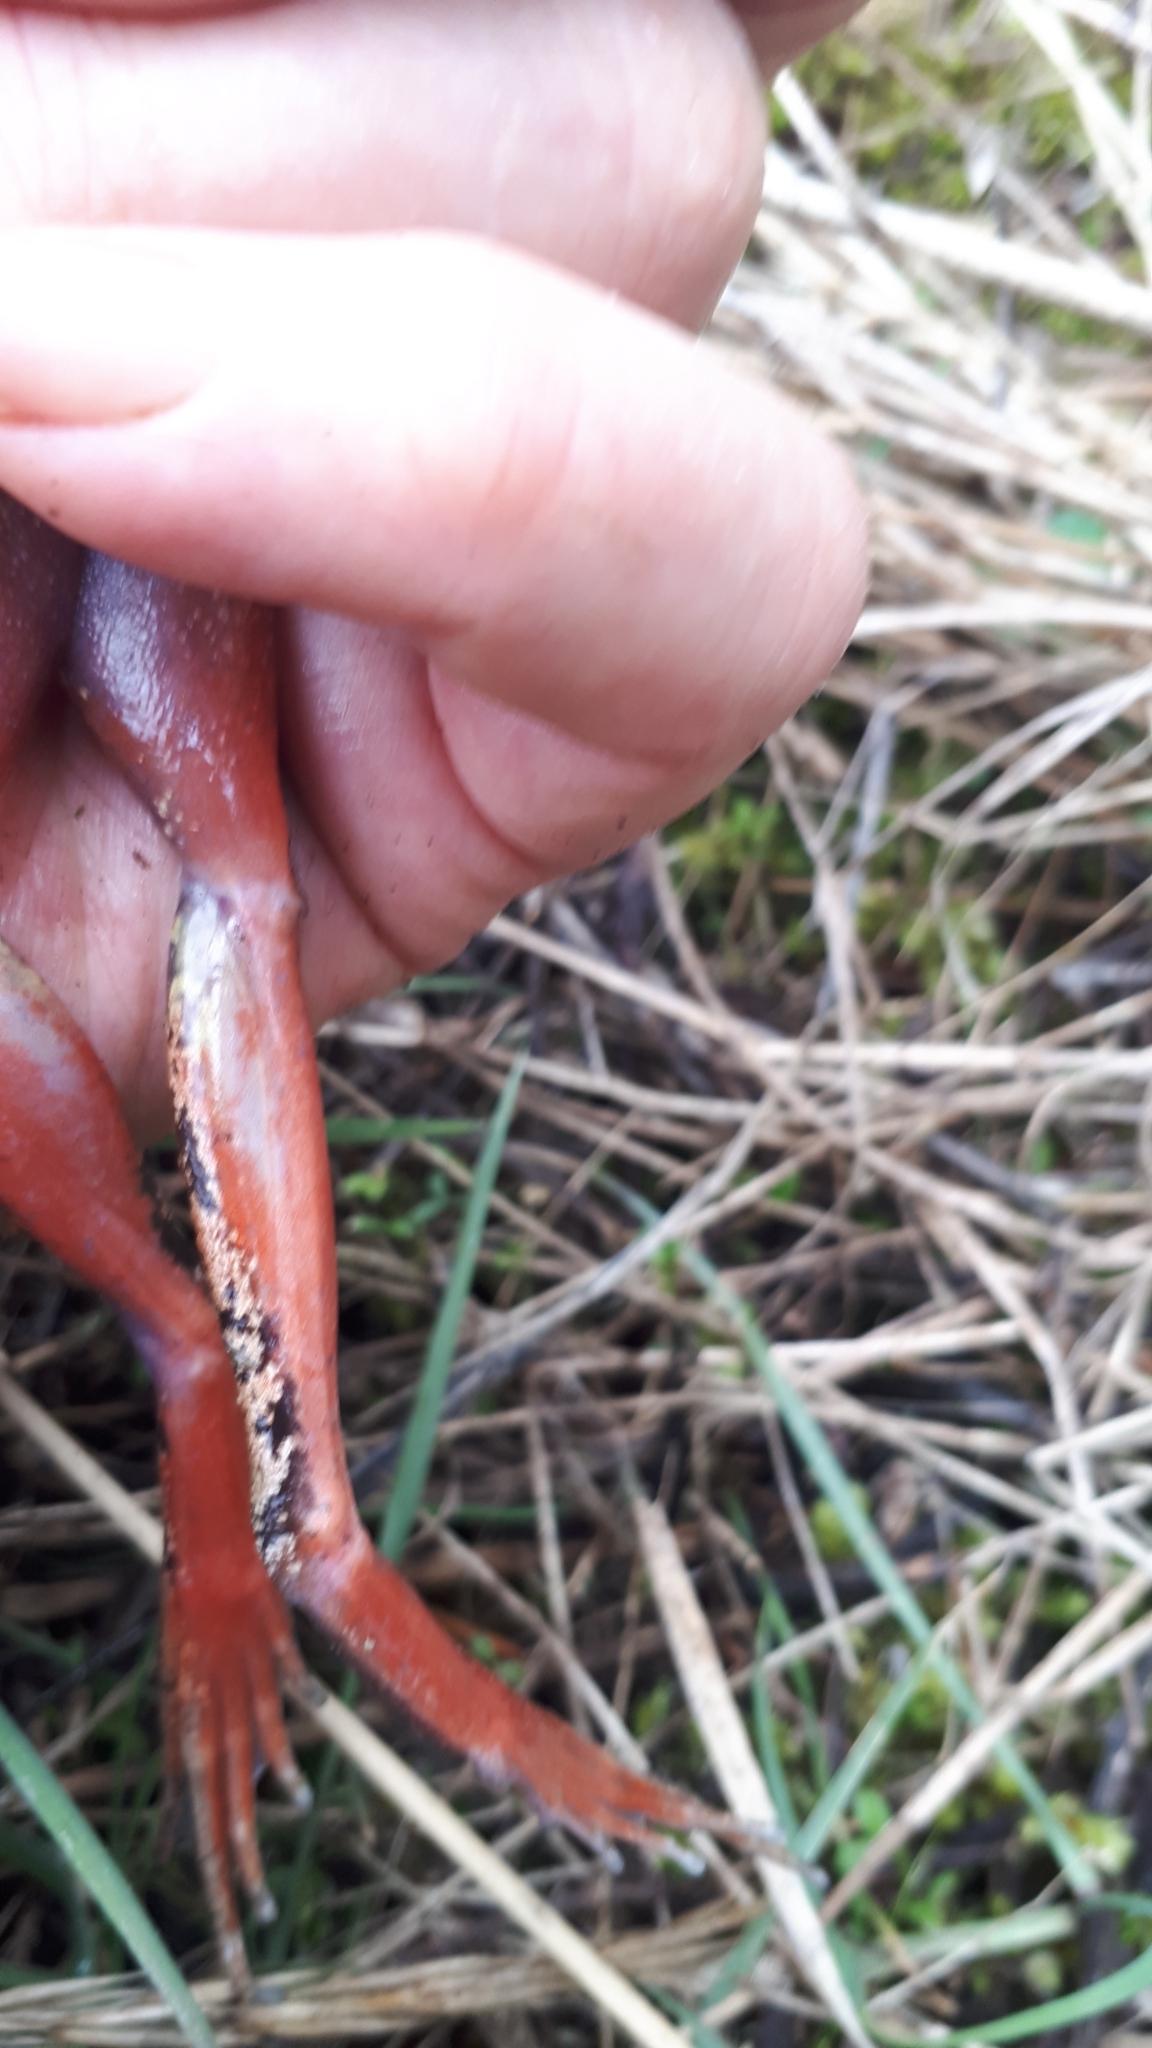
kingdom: Animalia
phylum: Chordata
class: Amphibia
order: Anura
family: Ranidae
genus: Rana
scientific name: Rana aurora
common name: Red-legged frog
